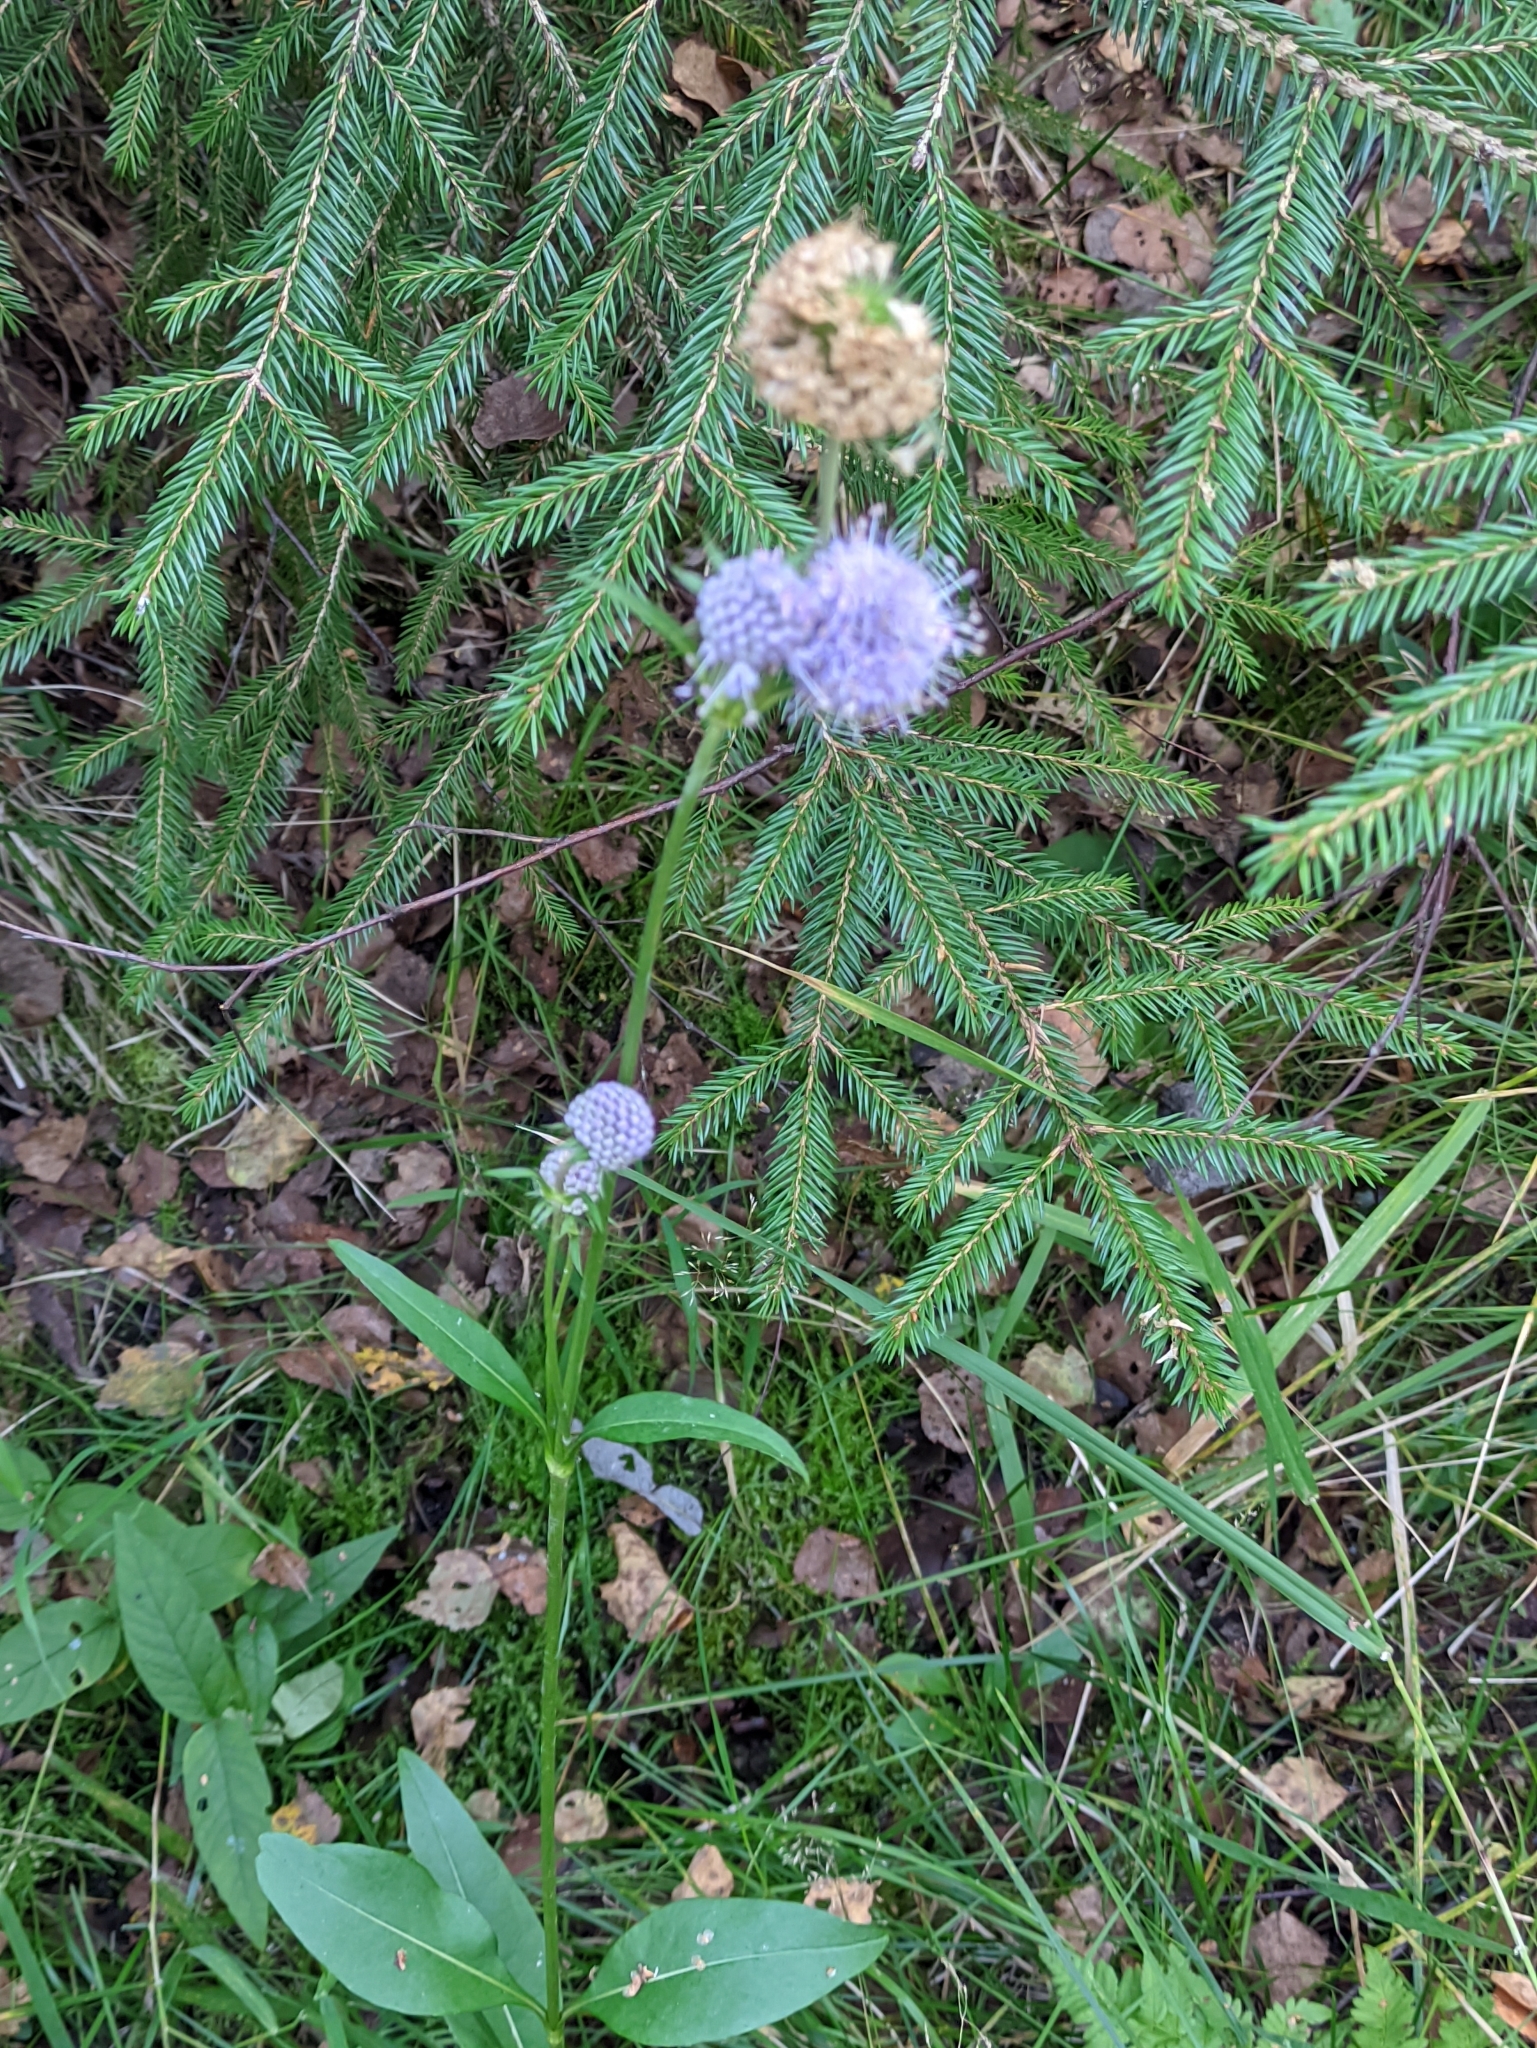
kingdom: Plantae
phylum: Tracheophyta
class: Magnoliopsida
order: Dipsacales
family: Caprifoliaceae
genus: Succisa
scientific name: Succisa pratensis
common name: Devil's-bit
